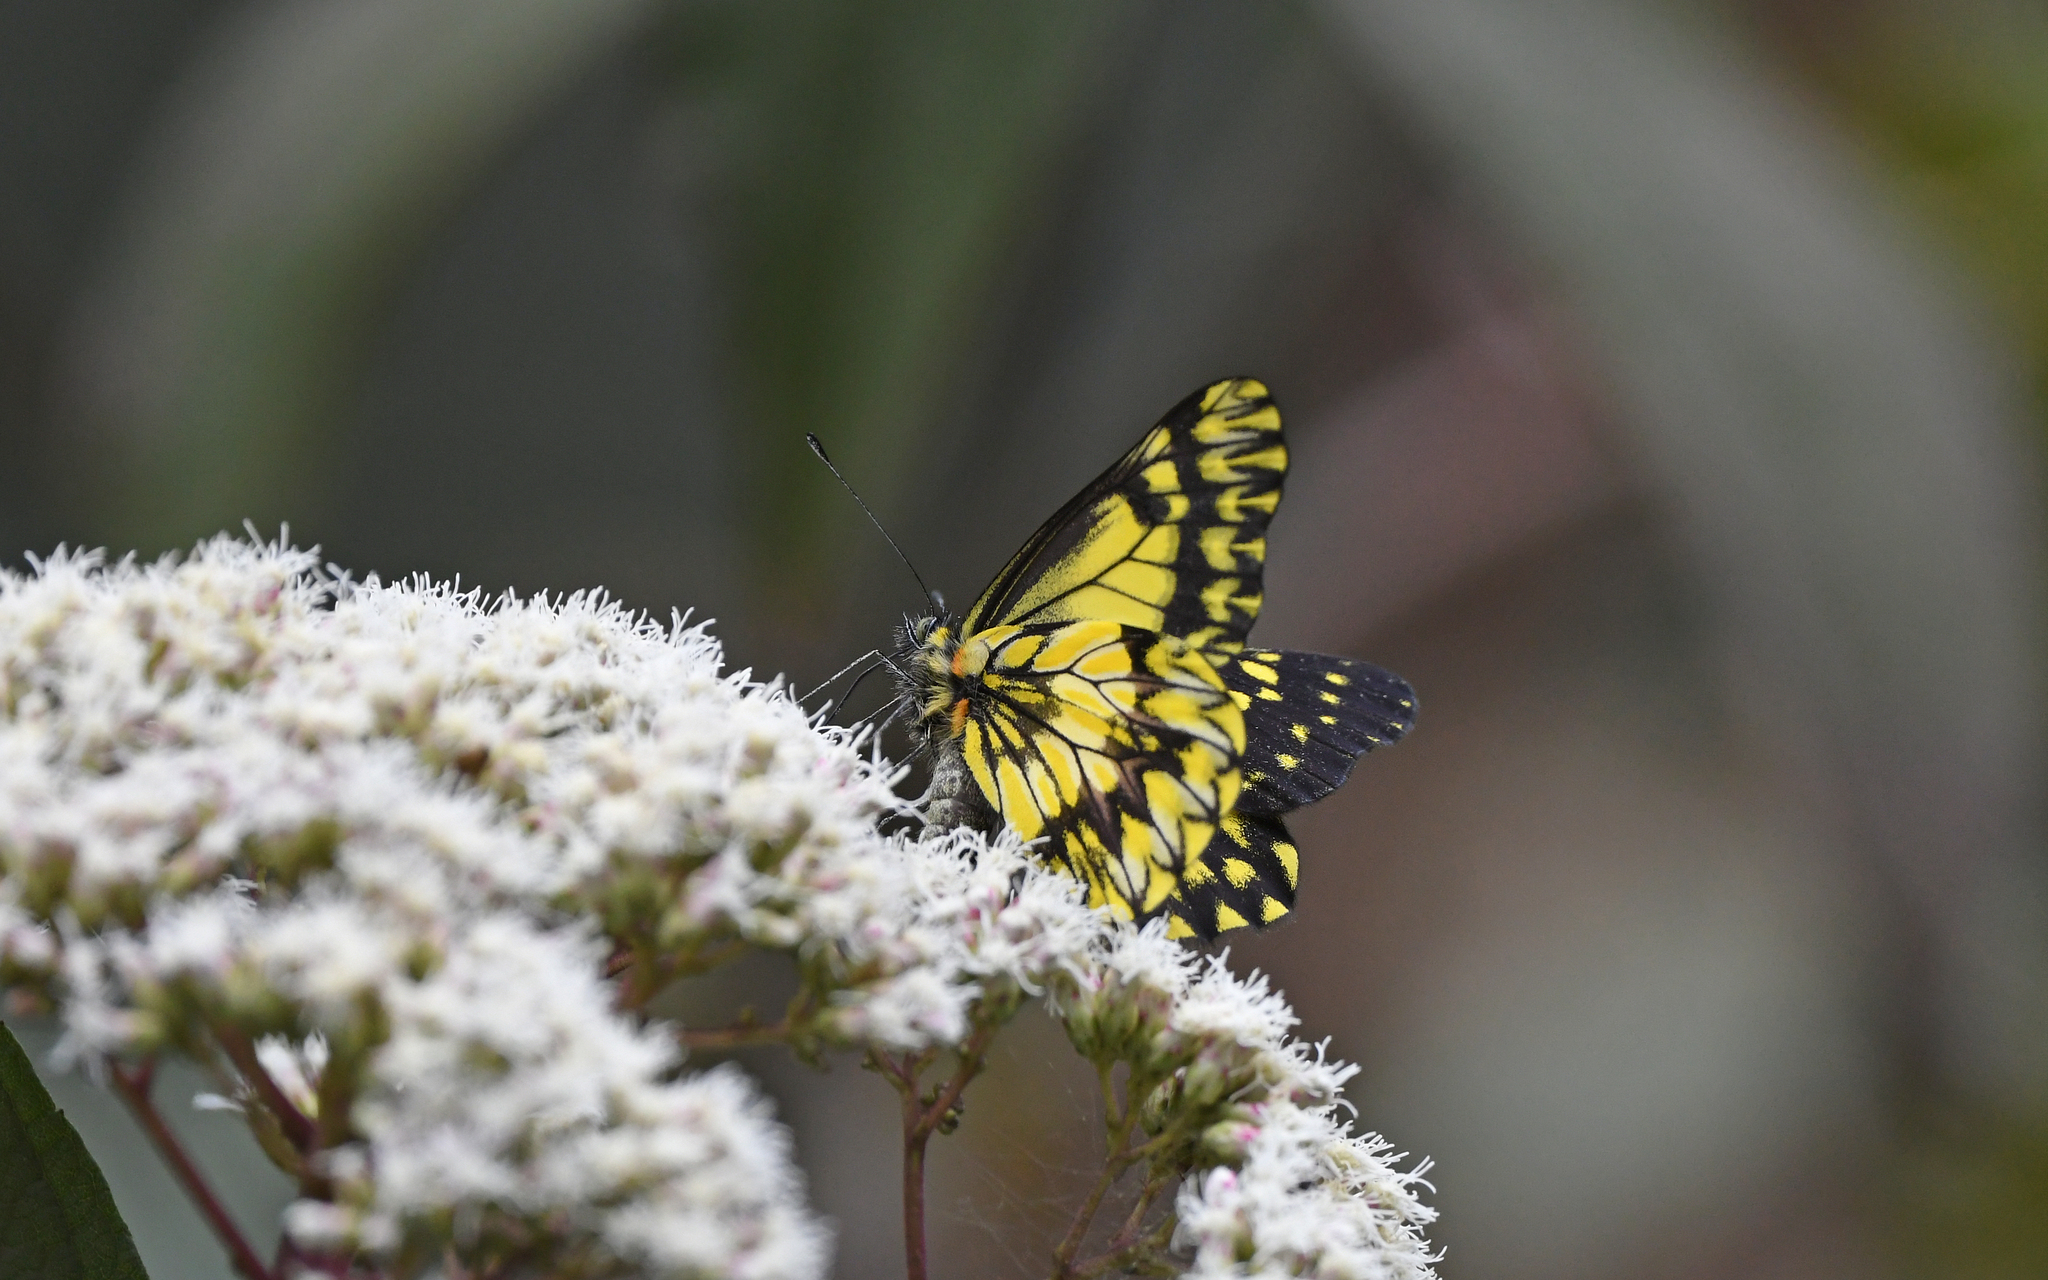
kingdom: Animalia
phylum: Arthropoda
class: Insecta
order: Lepidoptera
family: Pieridae
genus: Catasticta
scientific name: Catasticta sinapina
